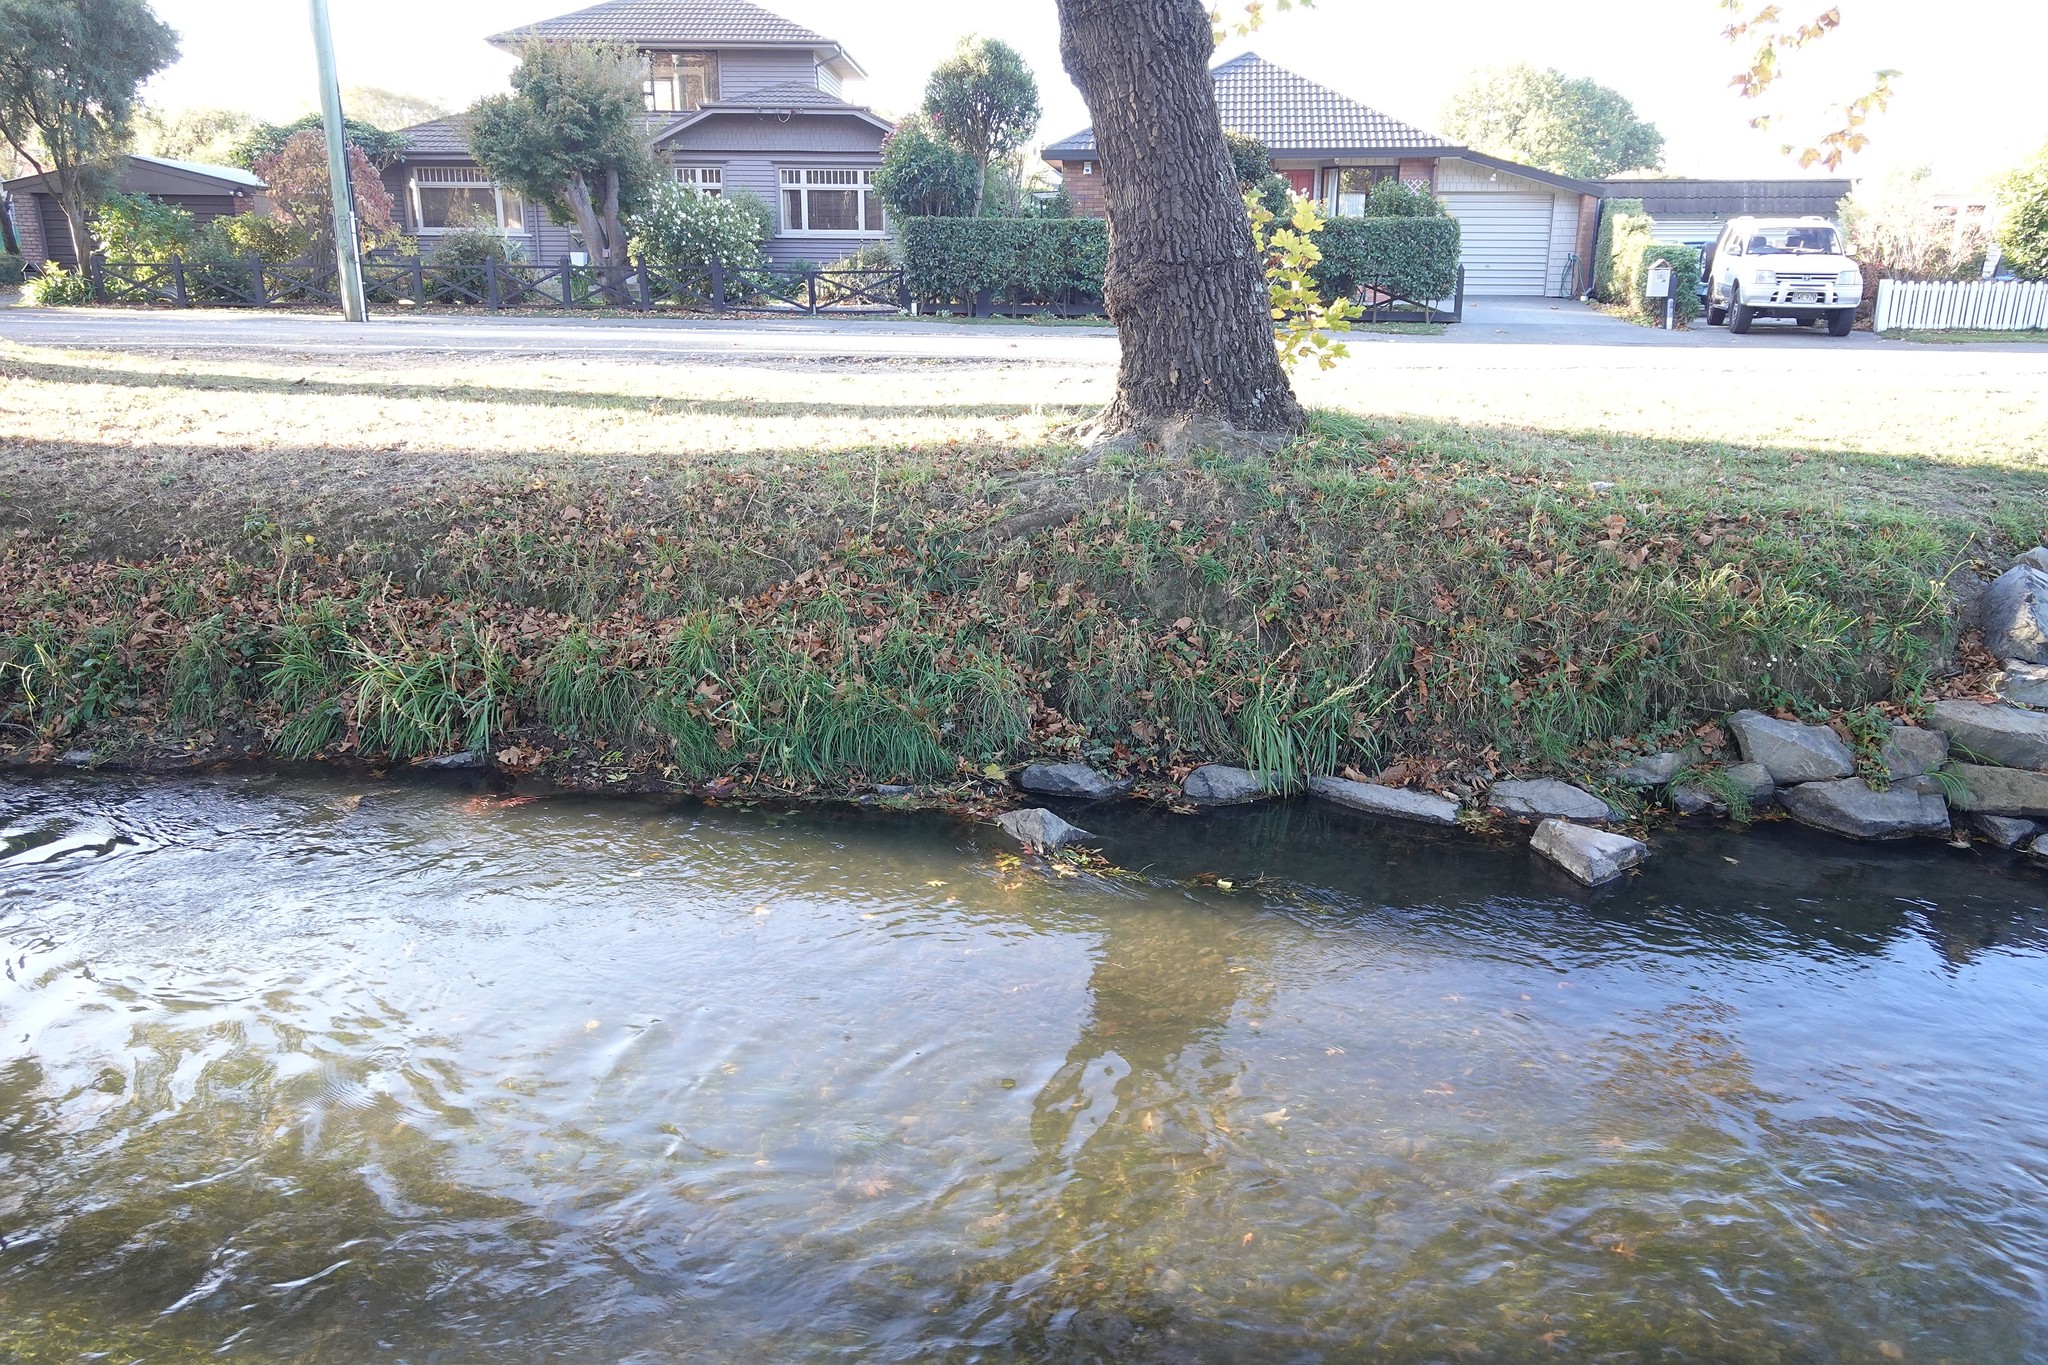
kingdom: Plantae
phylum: Tracheophyta
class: Liliopsida
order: Asparagales
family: Iridaceae
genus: Hesperantha
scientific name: Hesperantha coccinea
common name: River-lily
